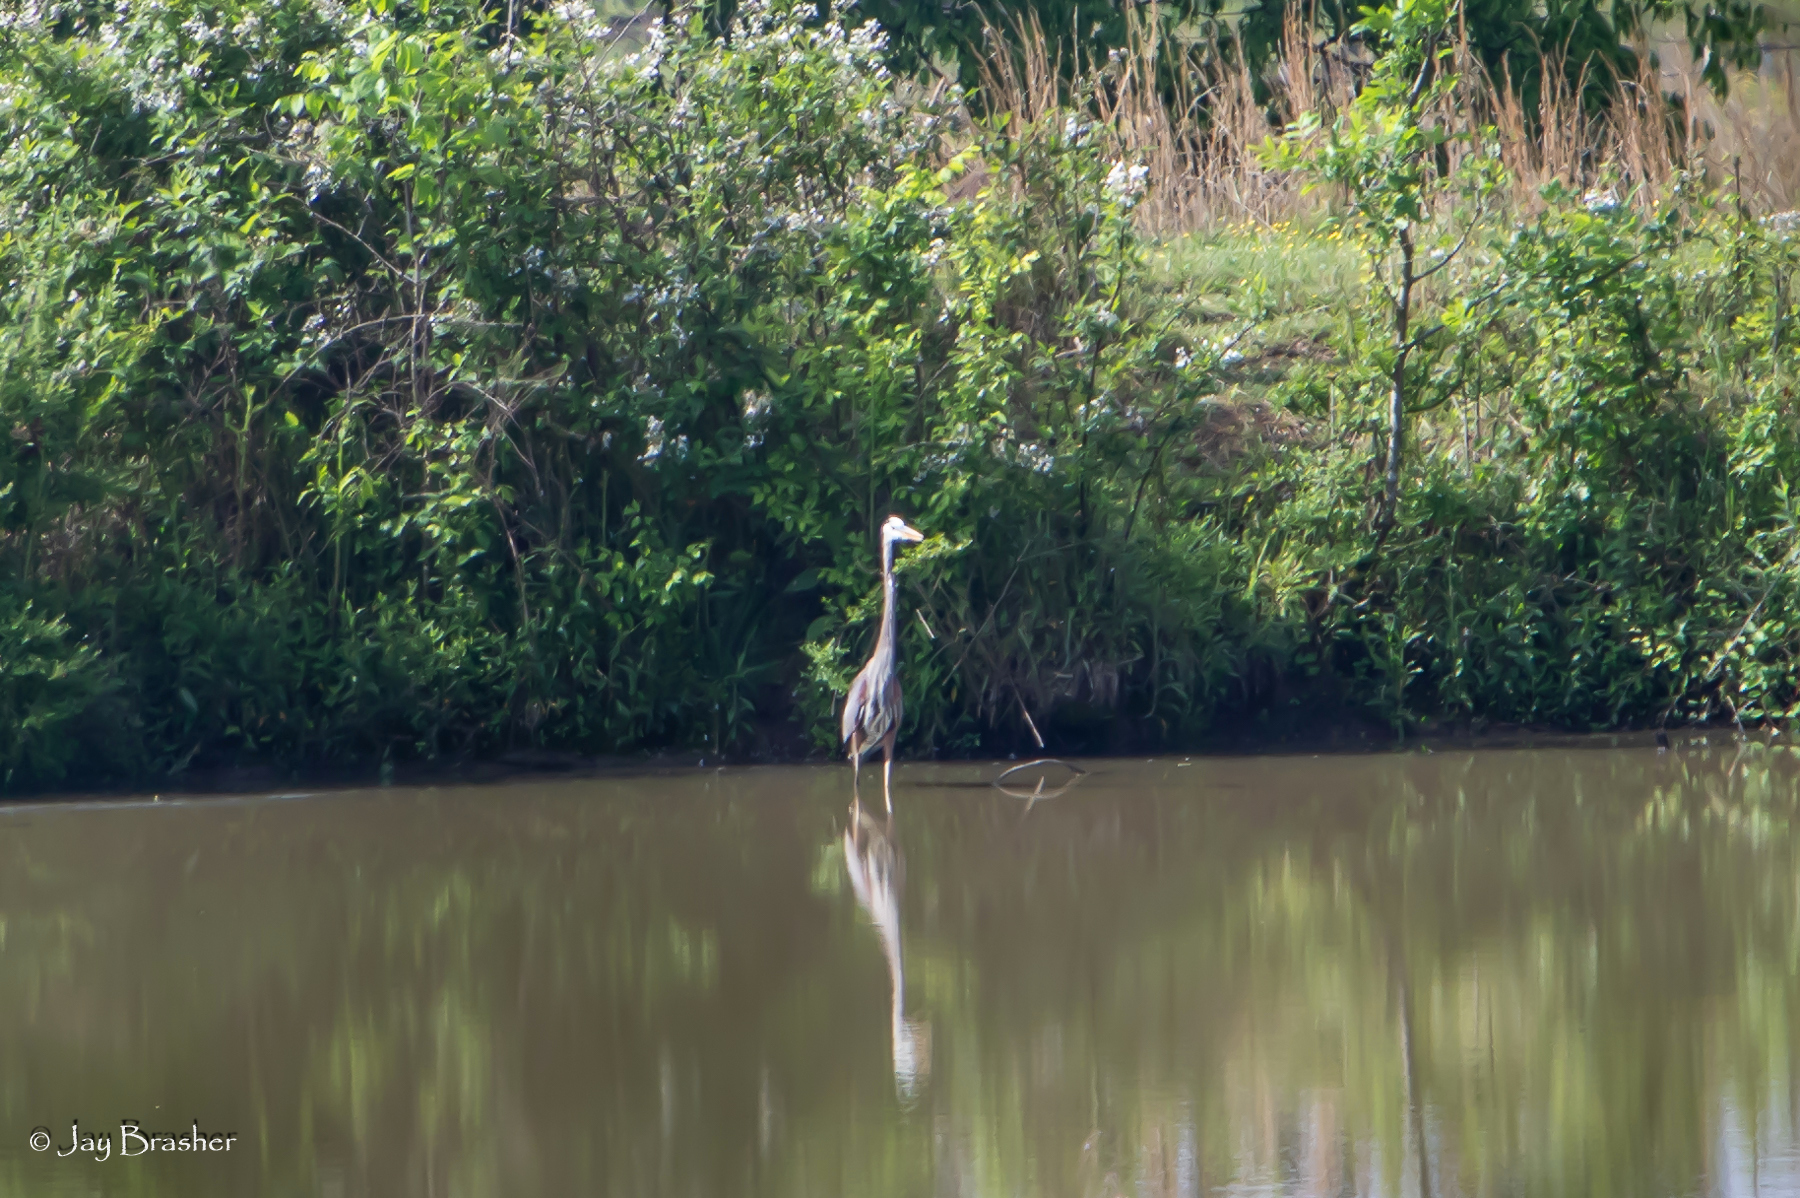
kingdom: Animalia
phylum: Chordata
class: Aves
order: Pelecaniformes
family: Ardeidae
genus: Ardea
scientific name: Ardea herodias
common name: Great blue heron
